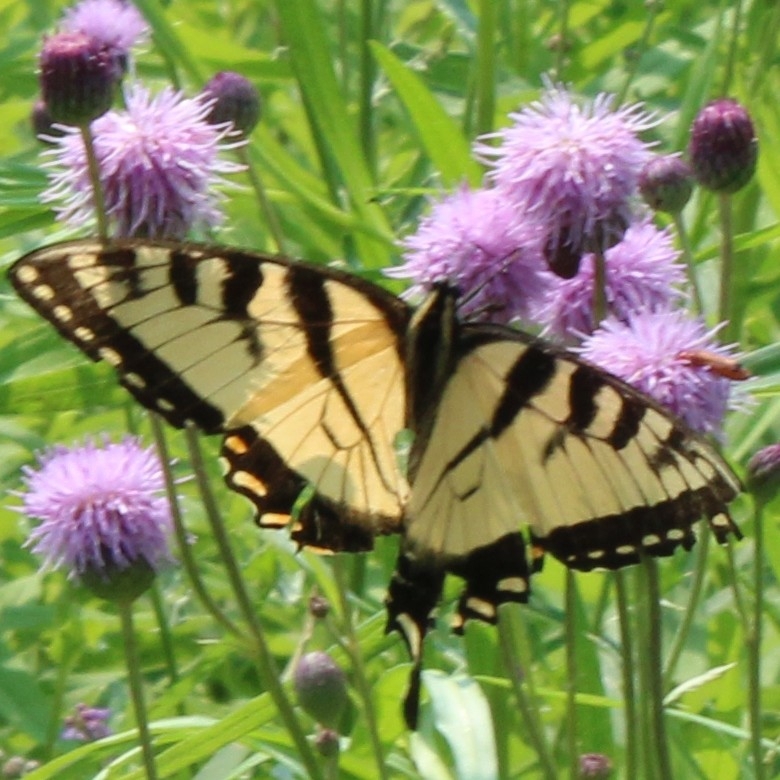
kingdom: Animalia
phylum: Arthropoda
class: Insecta
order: Lepidoptera
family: Papilionidae
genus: Papilio
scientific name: Papilio
